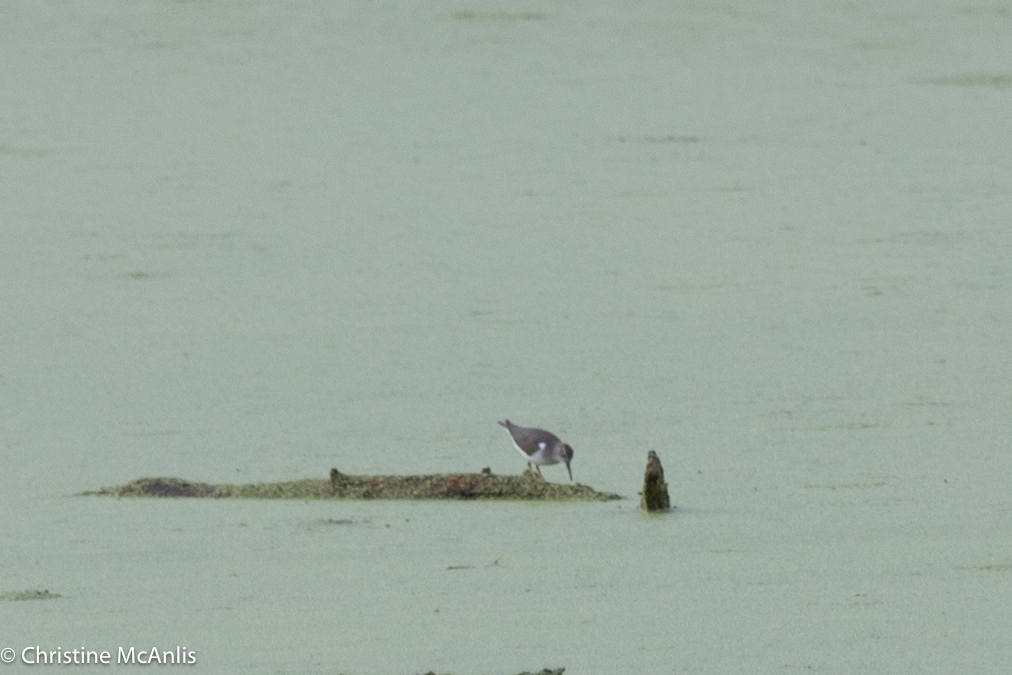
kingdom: Animalia
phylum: Chordata
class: Aves
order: Charadriiformes
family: Scolopacidae
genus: Actitis
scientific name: Actitis macularius
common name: Spotted sandpiper
